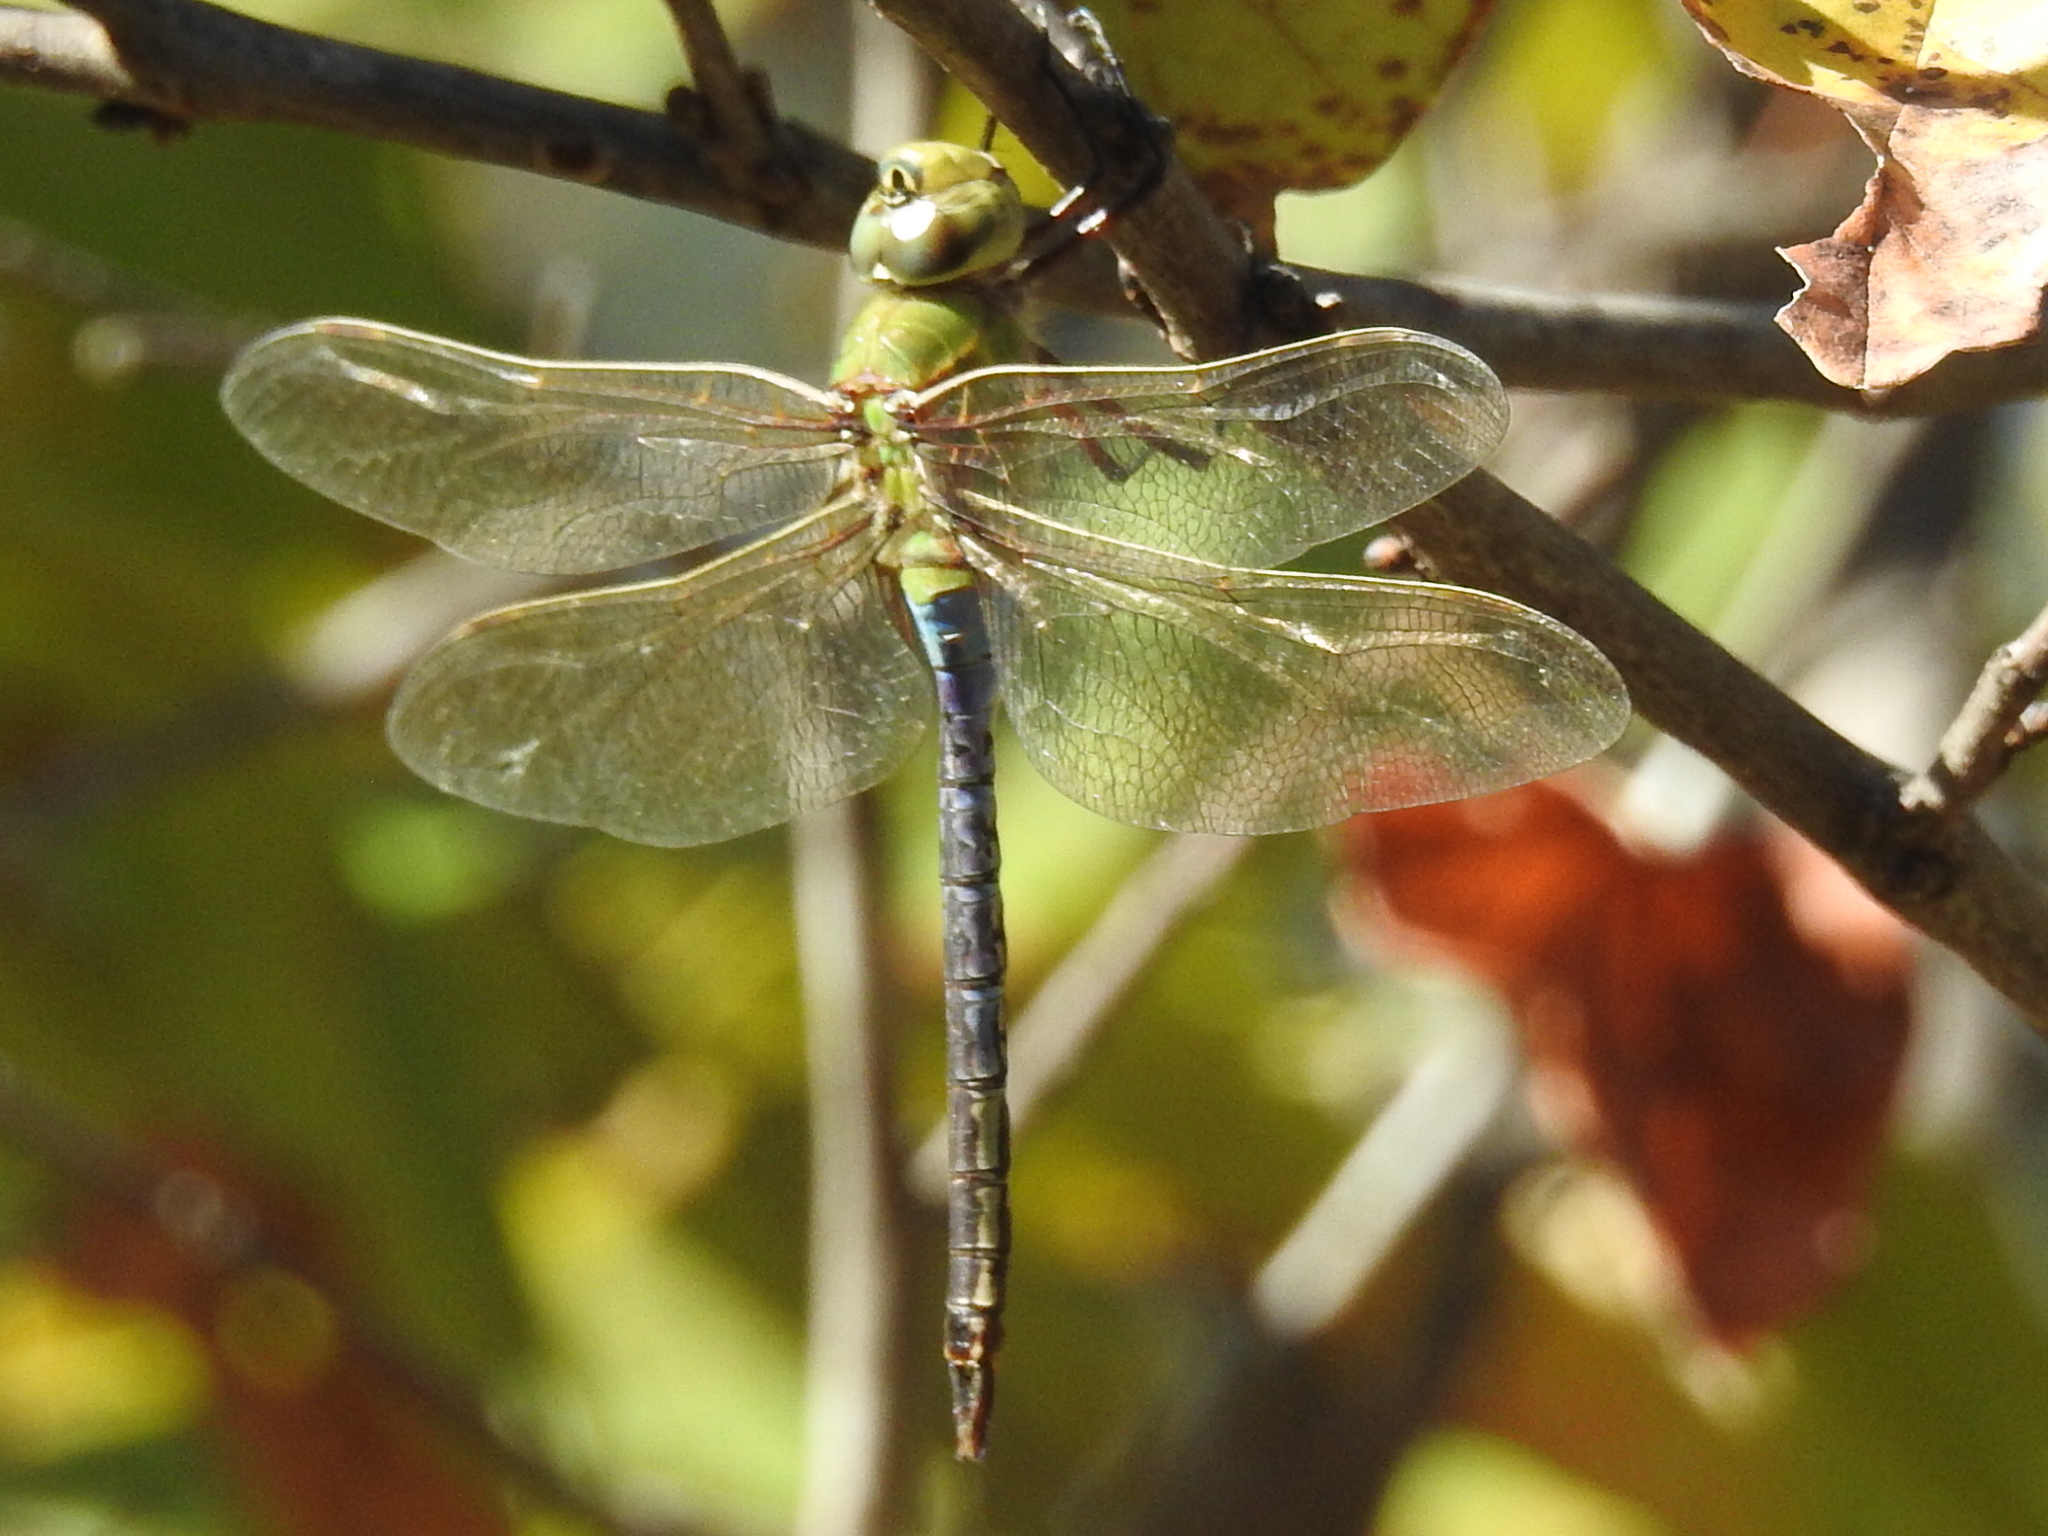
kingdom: Animalia
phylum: Arthropoda
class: Insecta
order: Odonata
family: Aeshnidae
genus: Anax
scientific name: Anax junius
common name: Common green darner
